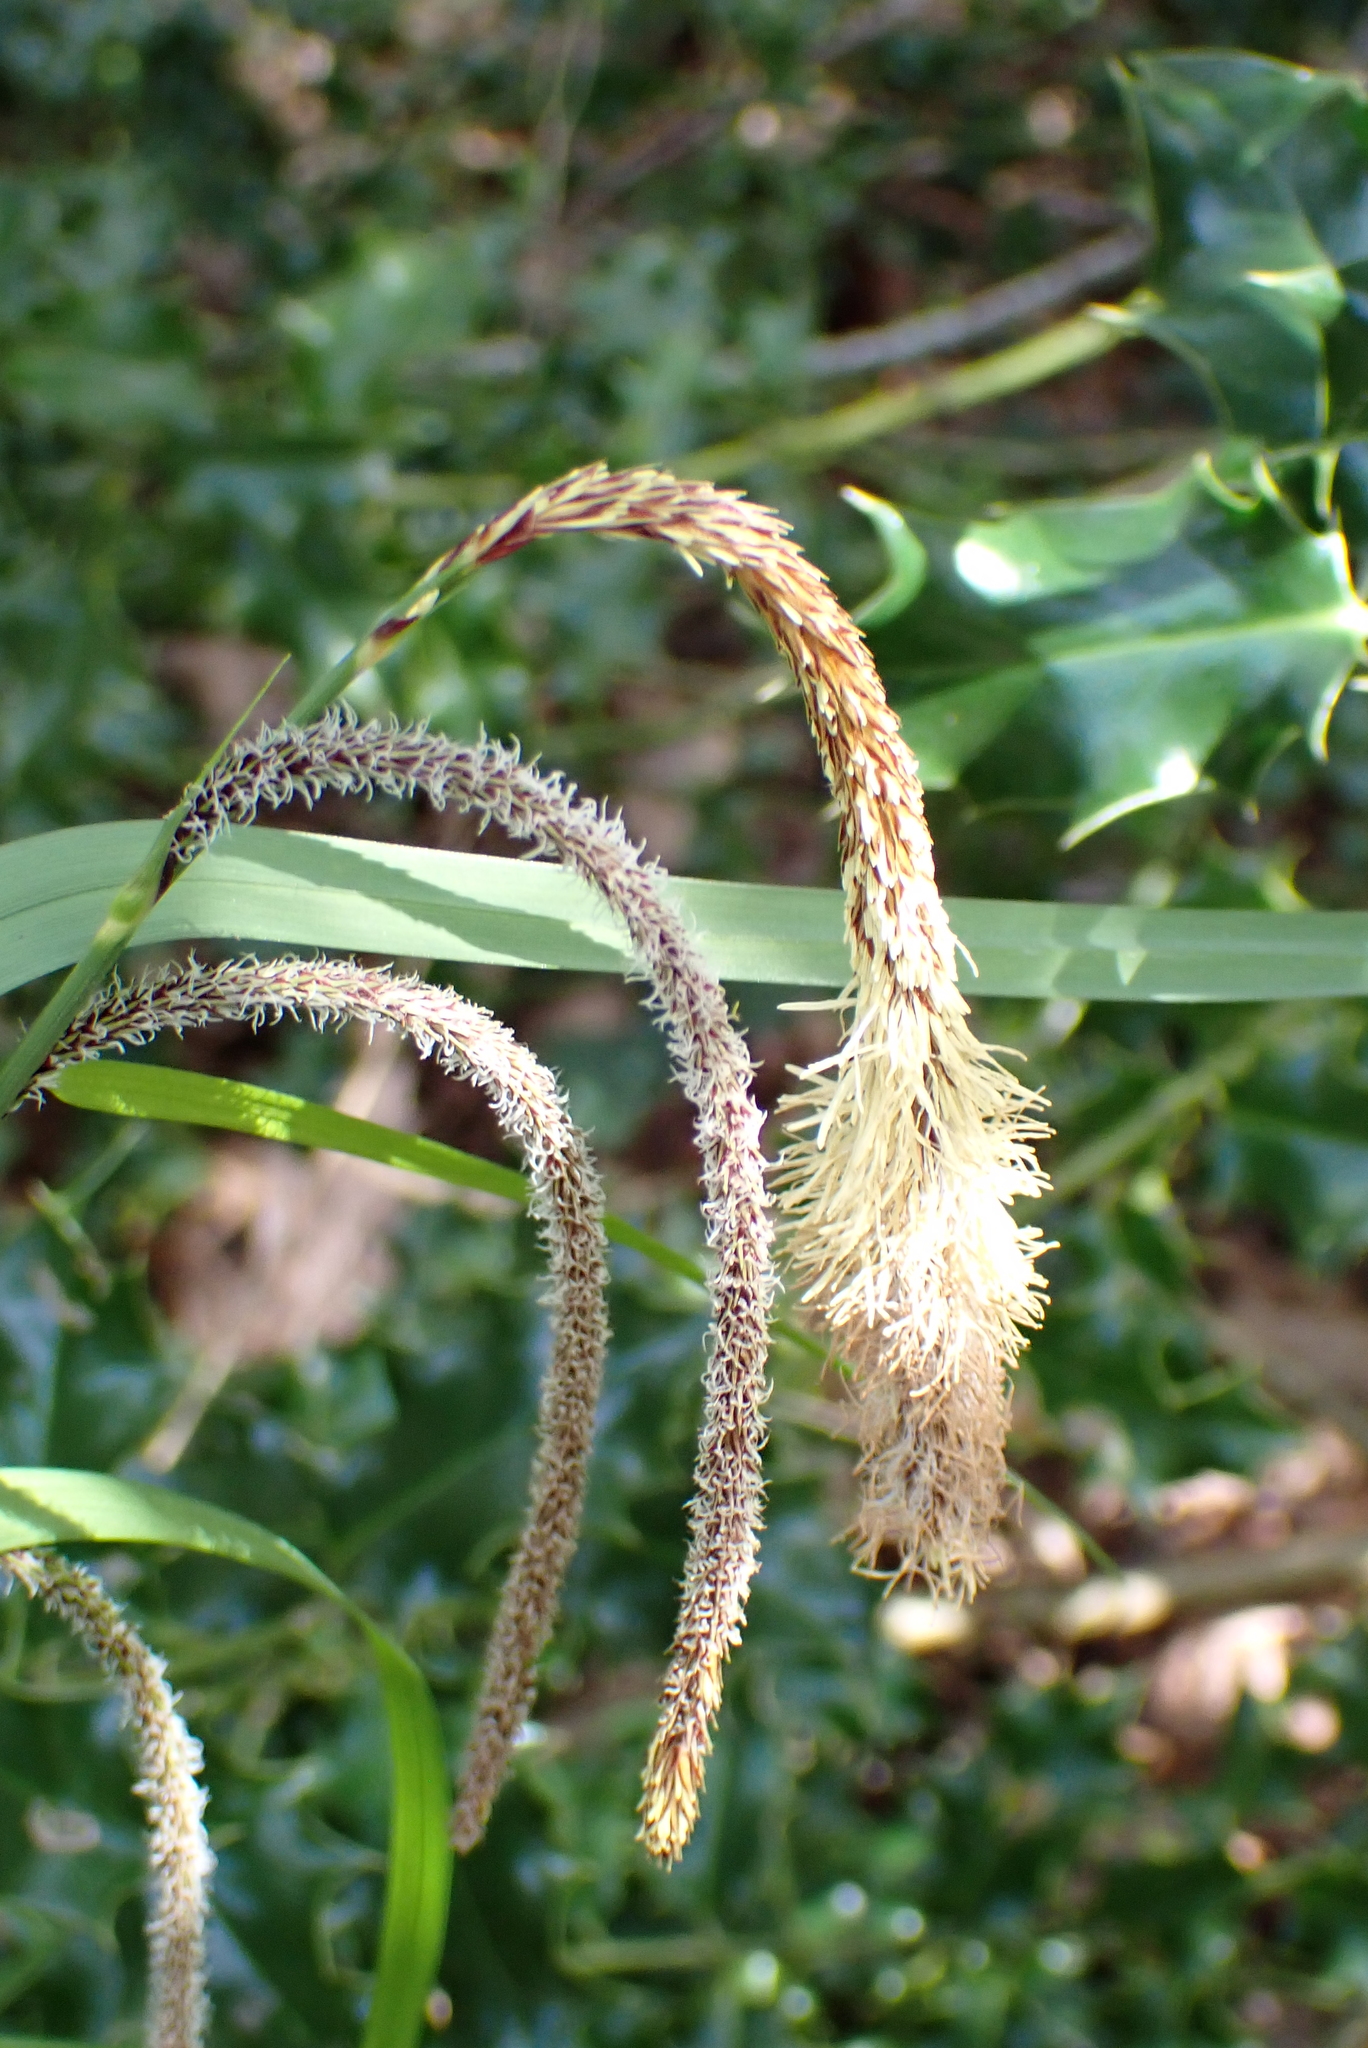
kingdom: Plantae
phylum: Tracheophyta
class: Liliopsida
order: Poales
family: Cyperaceae
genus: Carex
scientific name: Carex pendula
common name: Pendulous sedge
